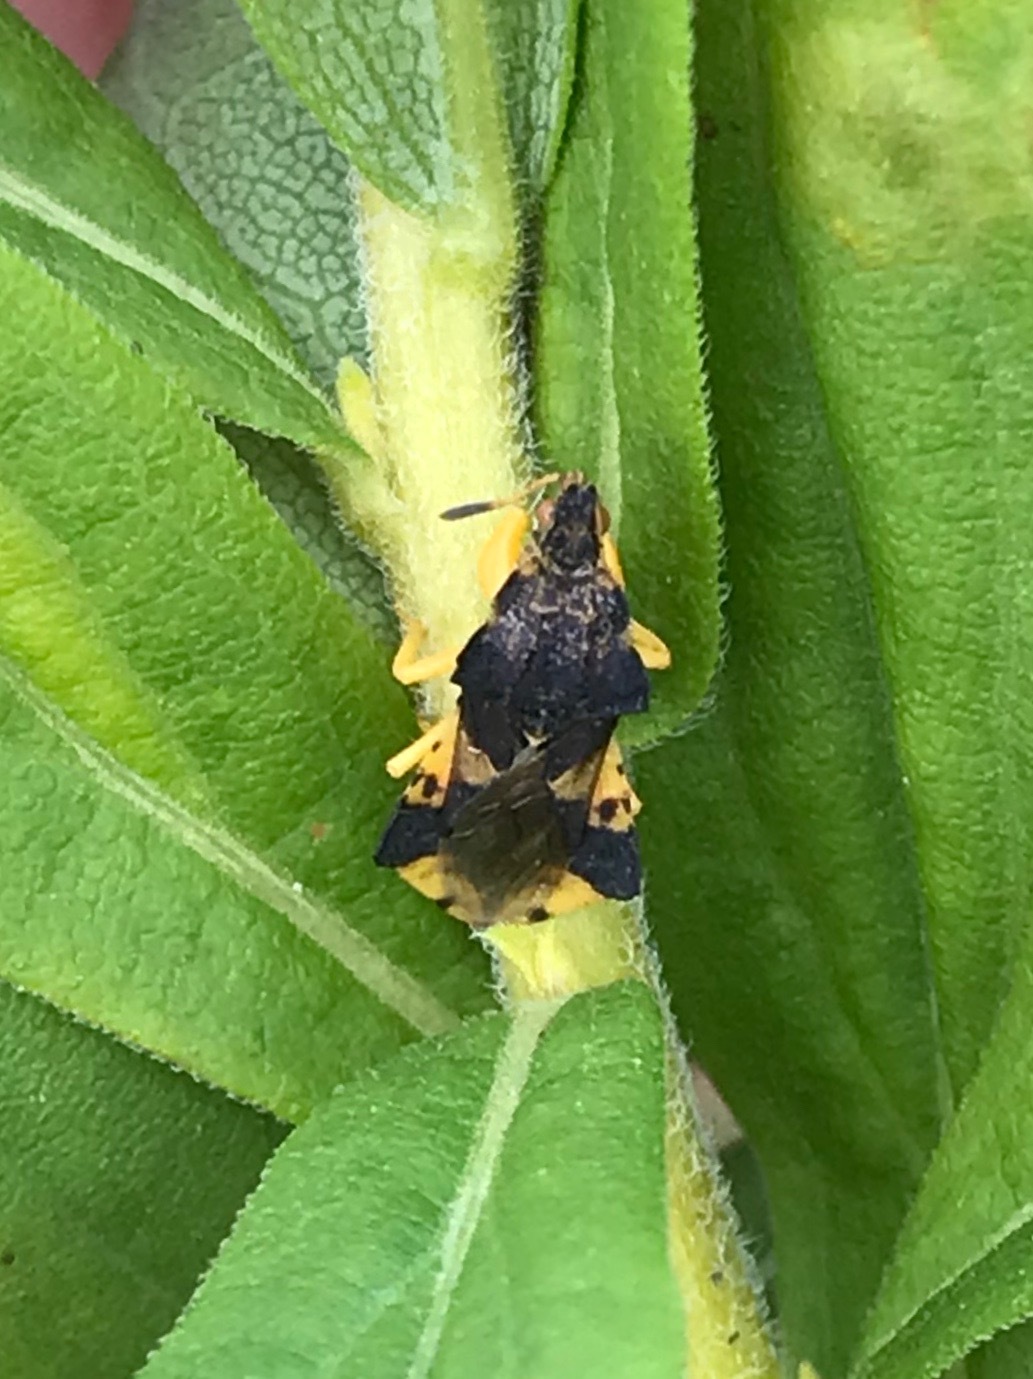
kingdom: Animalia
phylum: Arthropoda
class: Insecta
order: Hemiptera
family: Reduviidae
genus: Phymata
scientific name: Phymata americana
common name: Jagged ambush bug
